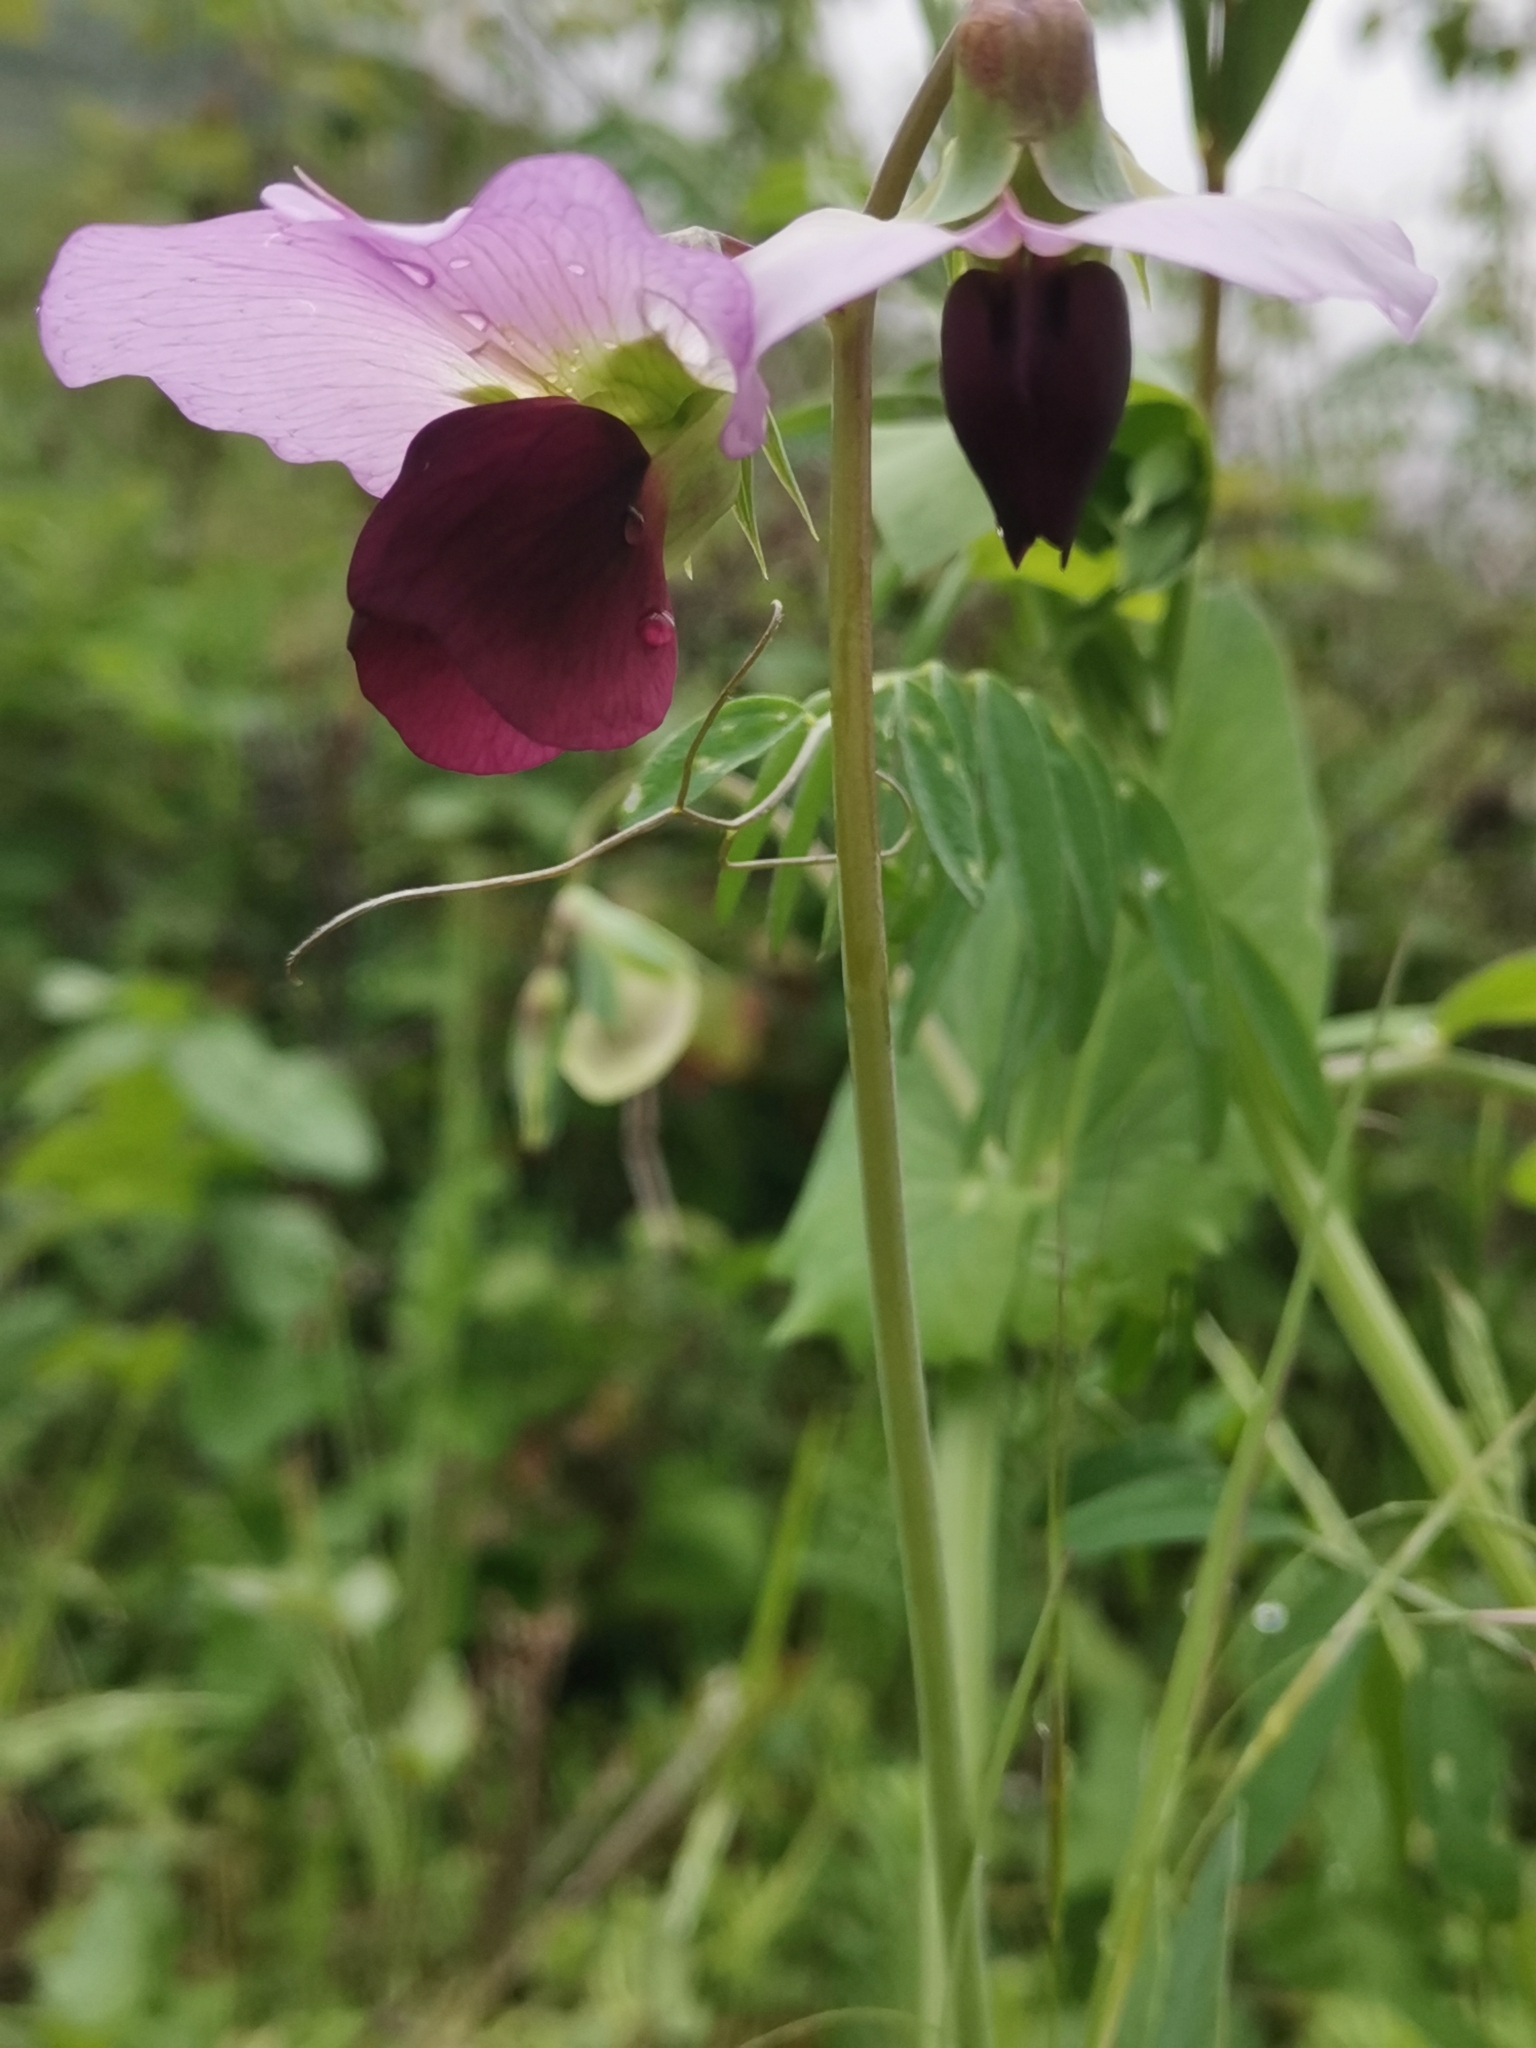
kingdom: Plantae
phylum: Tracheophyta
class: Magnoliopsida
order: Fabales
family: Fabaceae
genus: Lathyrus
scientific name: Lathyrus oleraceus
